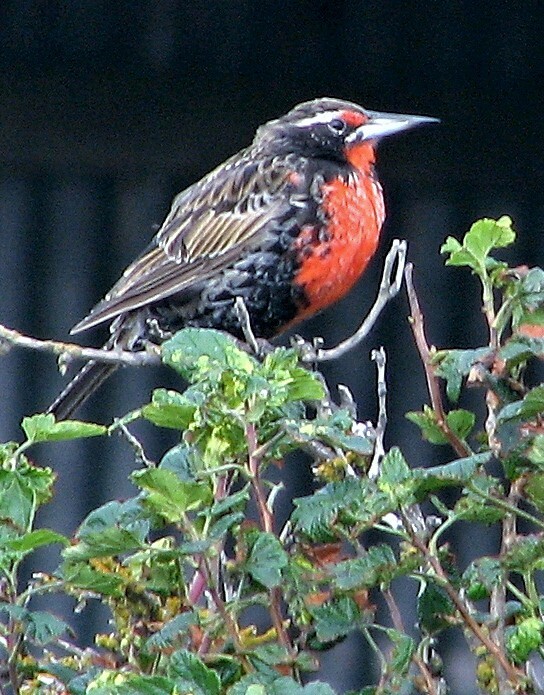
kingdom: Animalia
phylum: Chordata
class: Aves
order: Passeriformes
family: Icteridae
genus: Sturnella
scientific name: Sturnella loyca
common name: Long-tailed meadowlark
